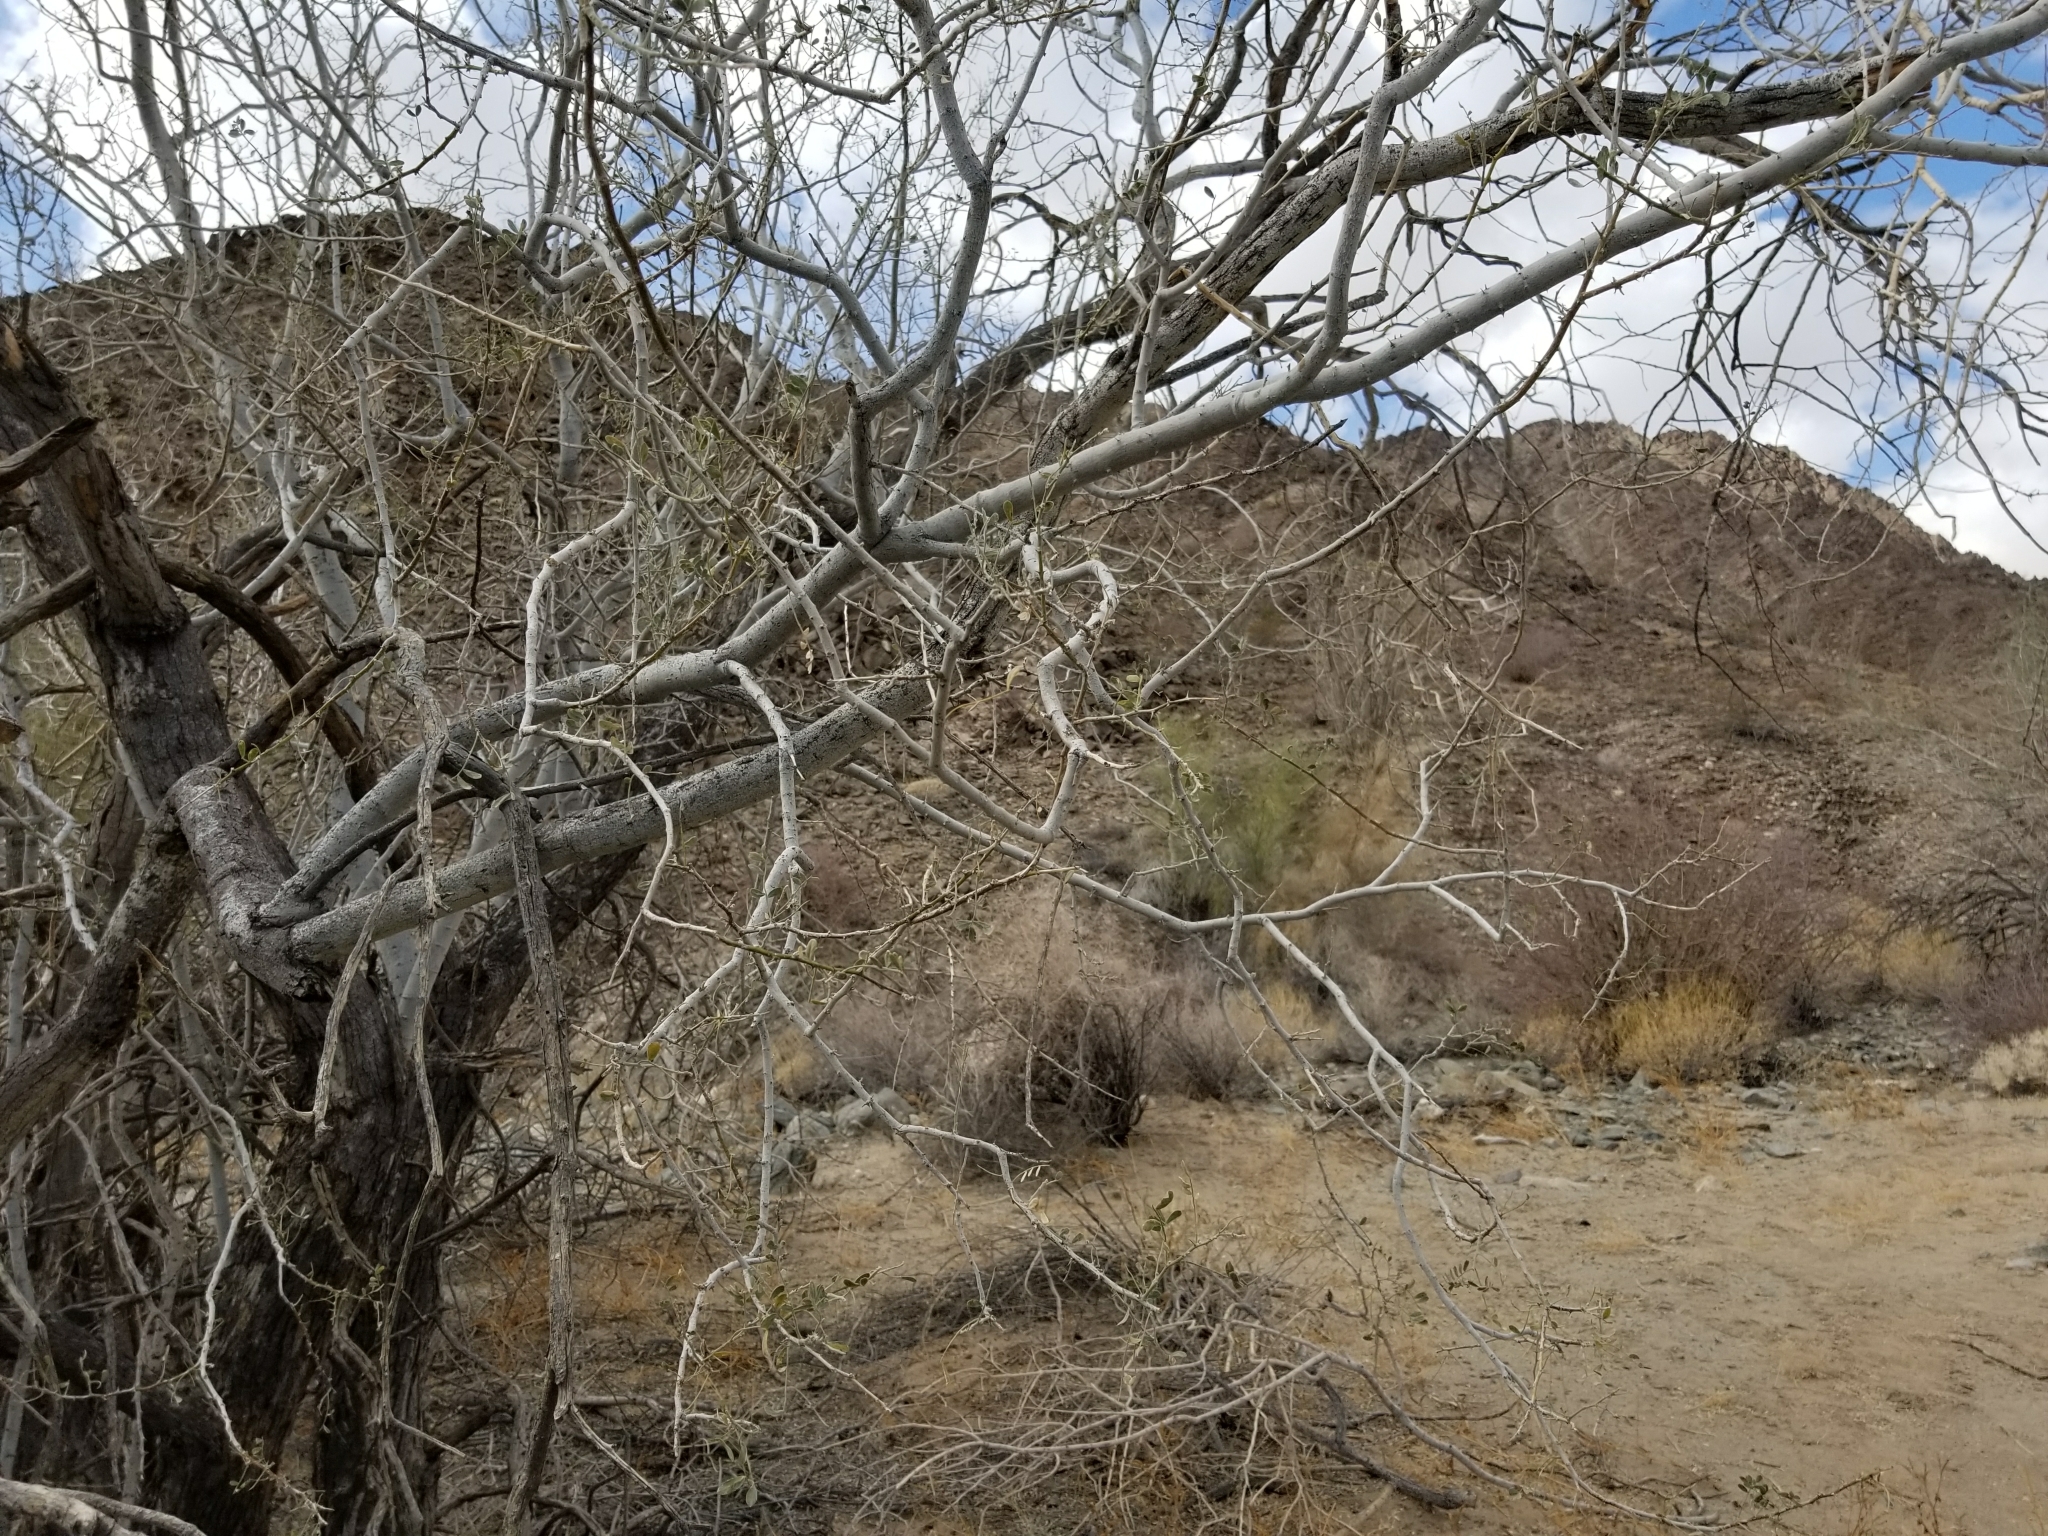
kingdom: Plantae
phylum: Tracheophyta
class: Magnoliopsida
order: Fabales
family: Fabaceae
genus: Olneya
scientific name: Olneya tesota
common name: Desert ironwood
